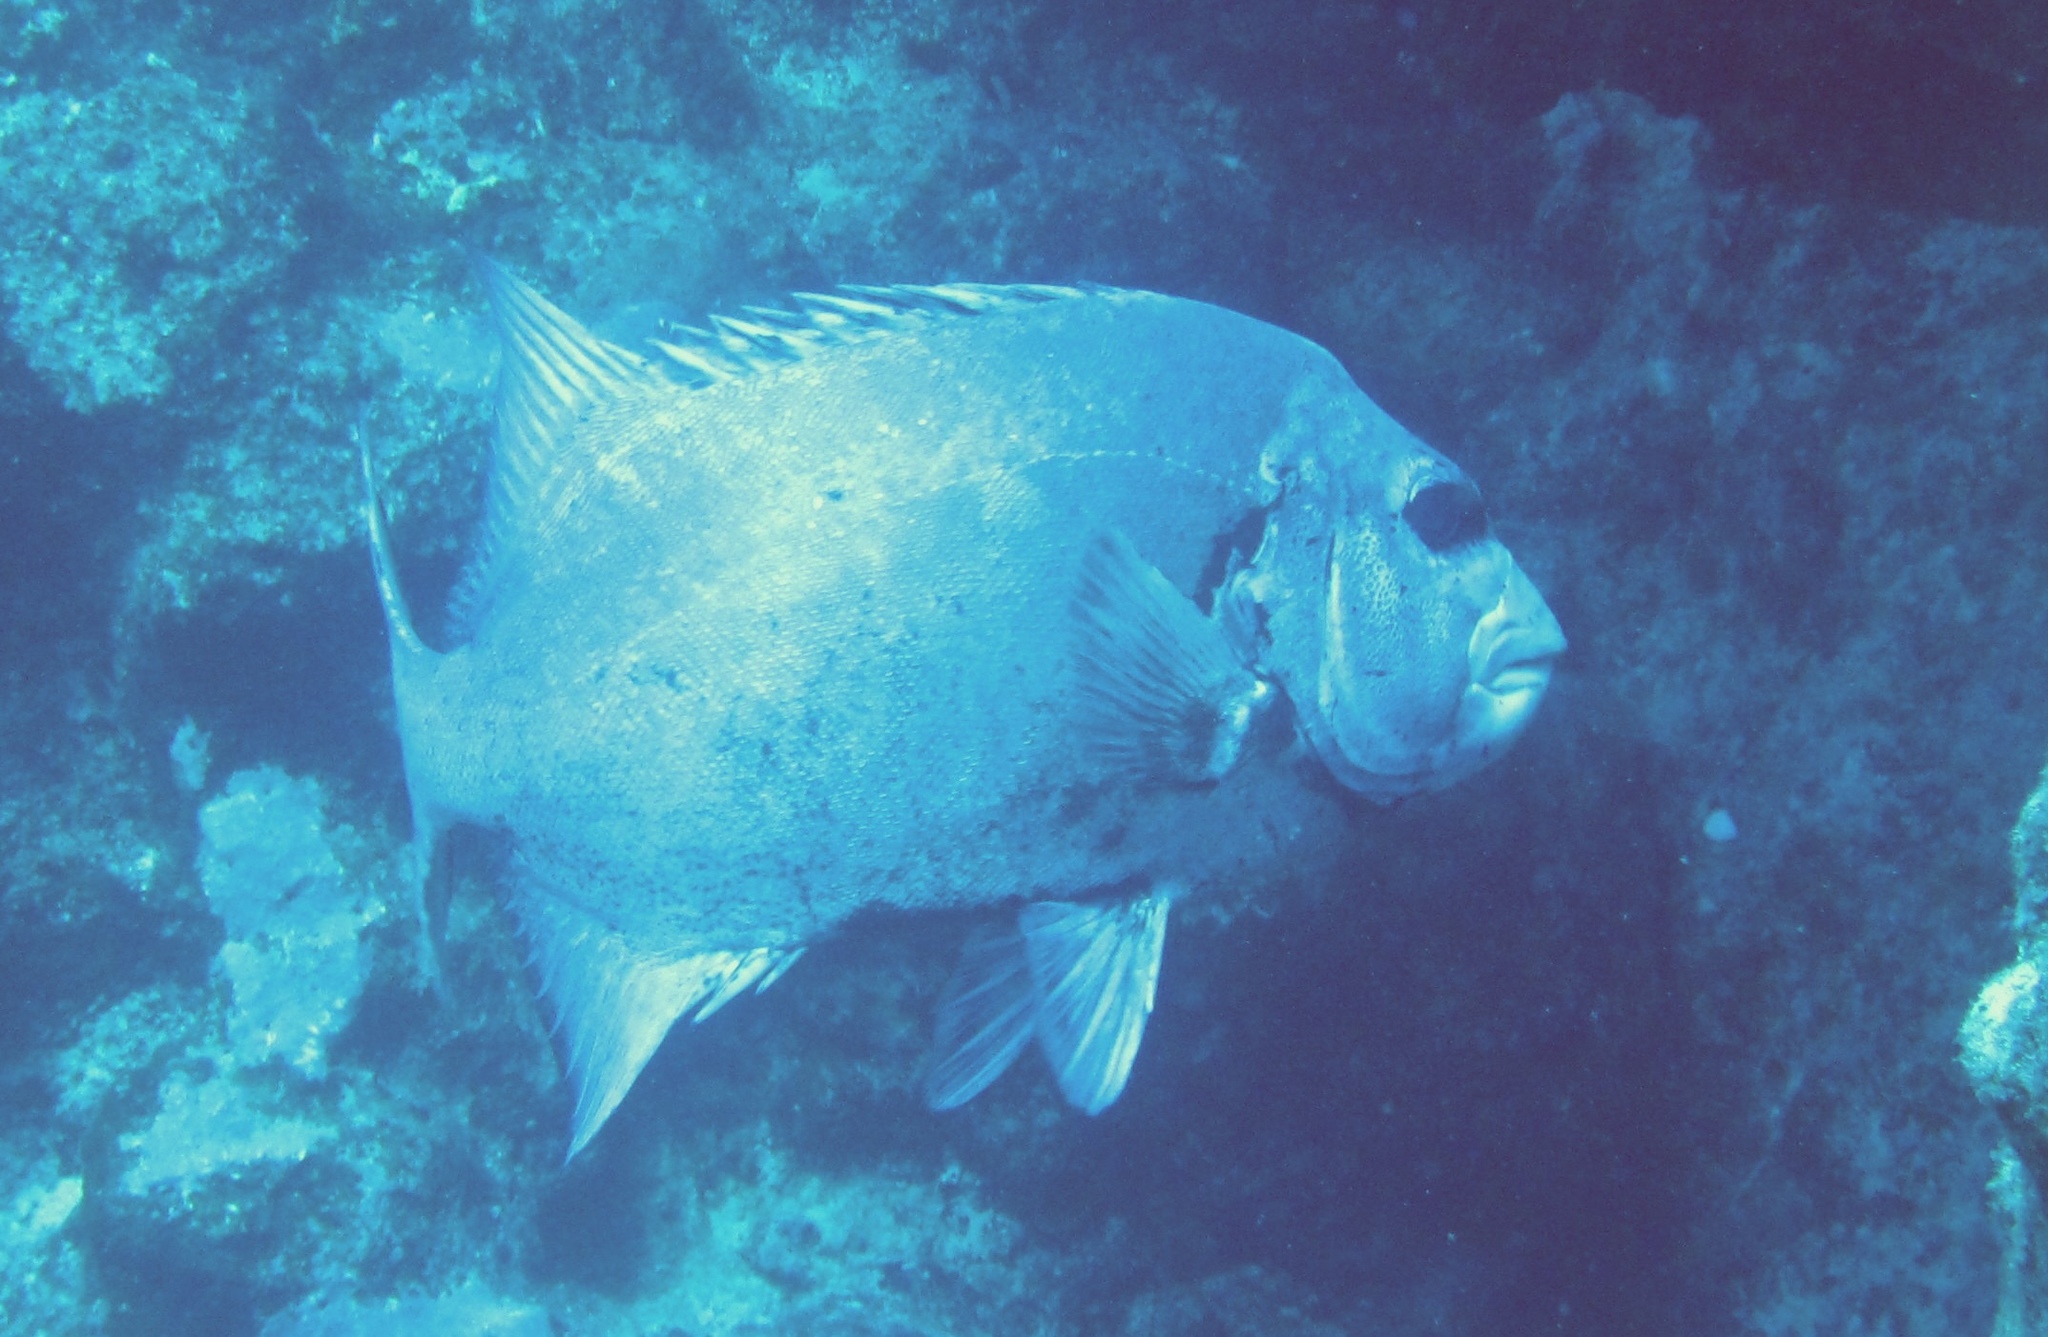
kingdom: Animalia
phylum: Chordata
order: Perciformes
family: Oplegnathidae
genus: Oplegnathus
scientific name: Oplegnathus punctatus
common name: Spotted knifejaw
